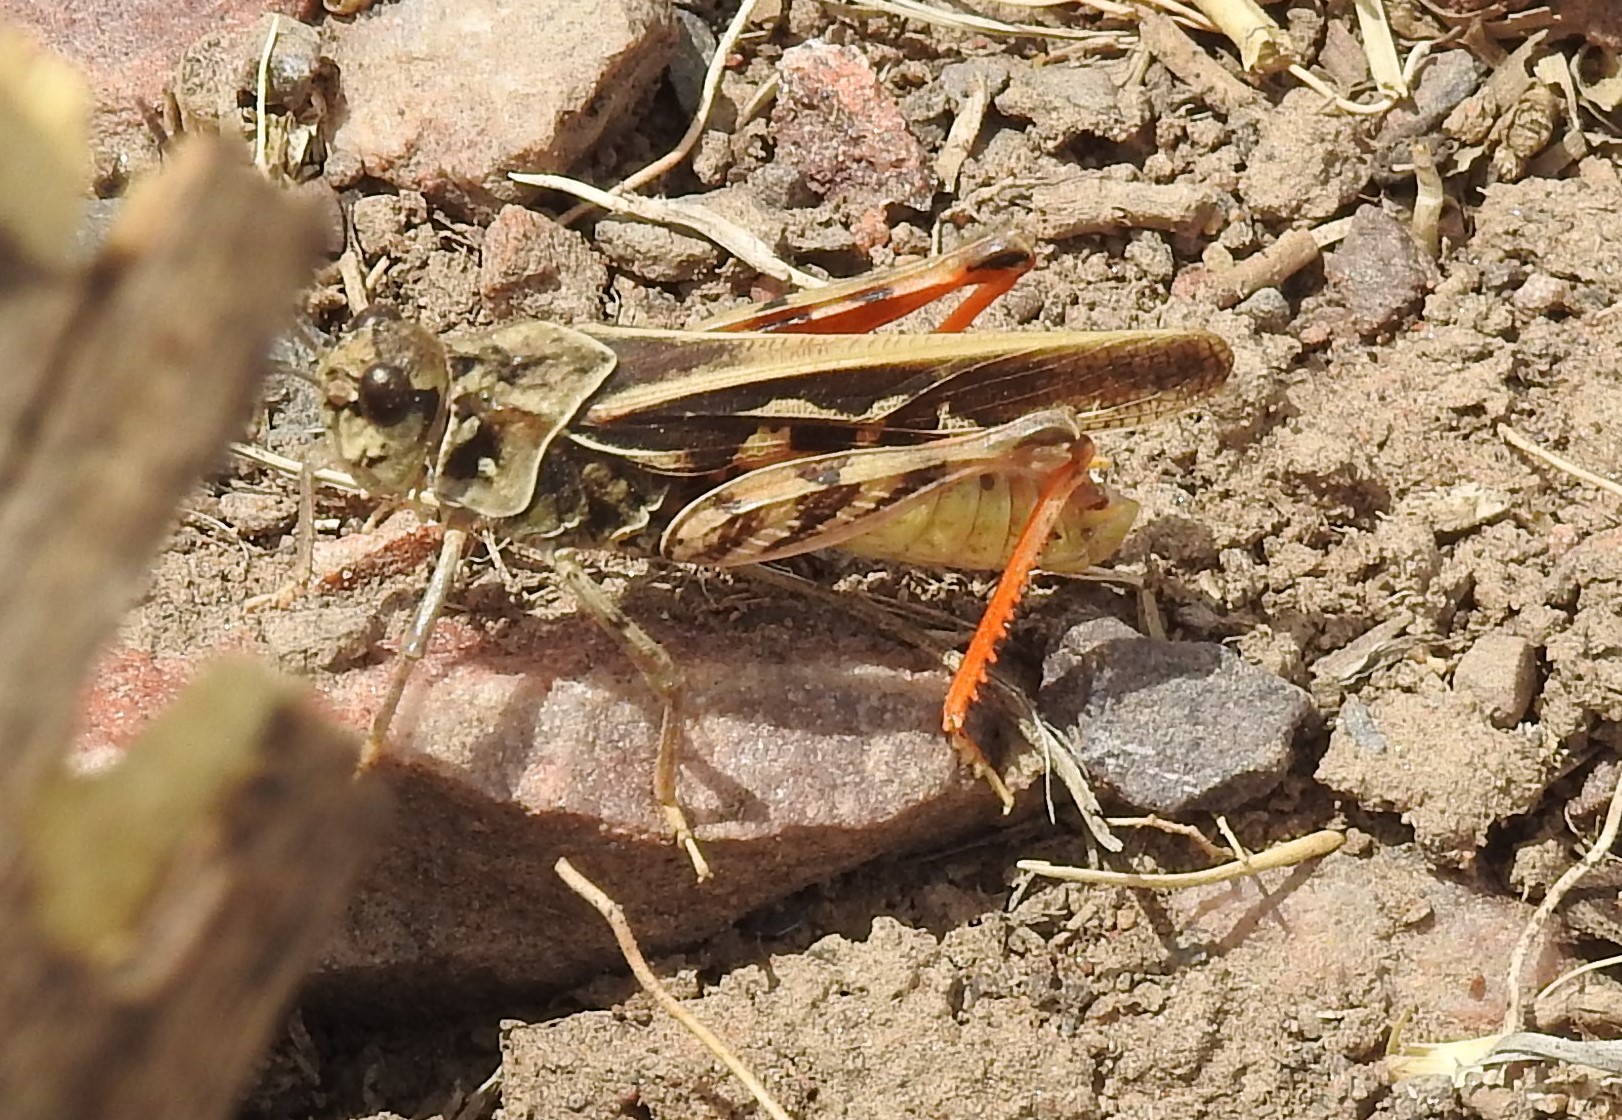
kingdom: Animalia
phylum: Arthropoda
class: Insecta
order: Orthoptera
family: Acrididae
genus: Xanthippus
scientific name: Xanthippus corallipes
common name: Redshanked grasshopper
